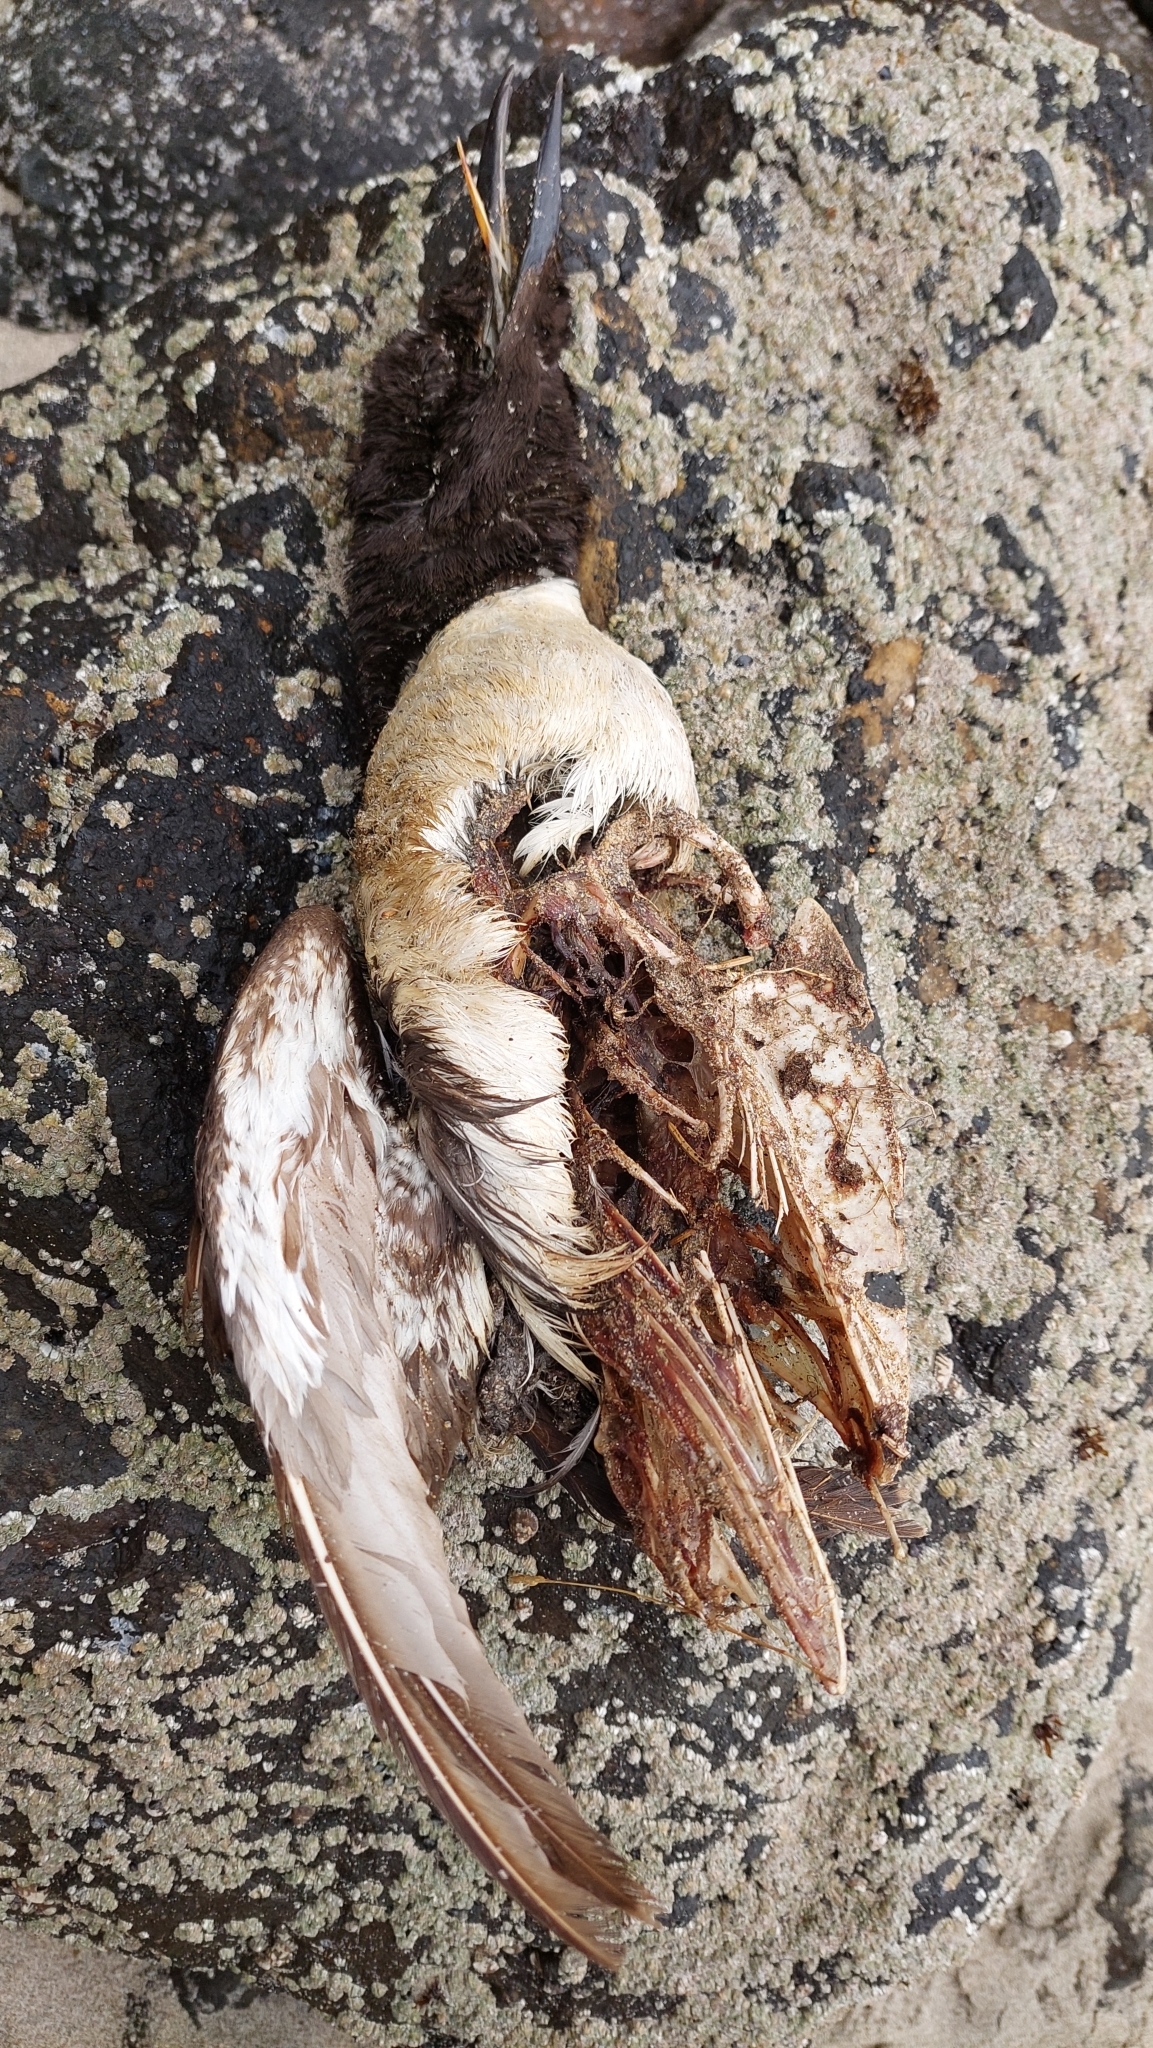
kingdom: Animalia
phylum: Chordata
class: Aves
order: Charadriiformes
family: Alcidae
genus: Uria
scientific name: Uria aalge
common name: Common murre
